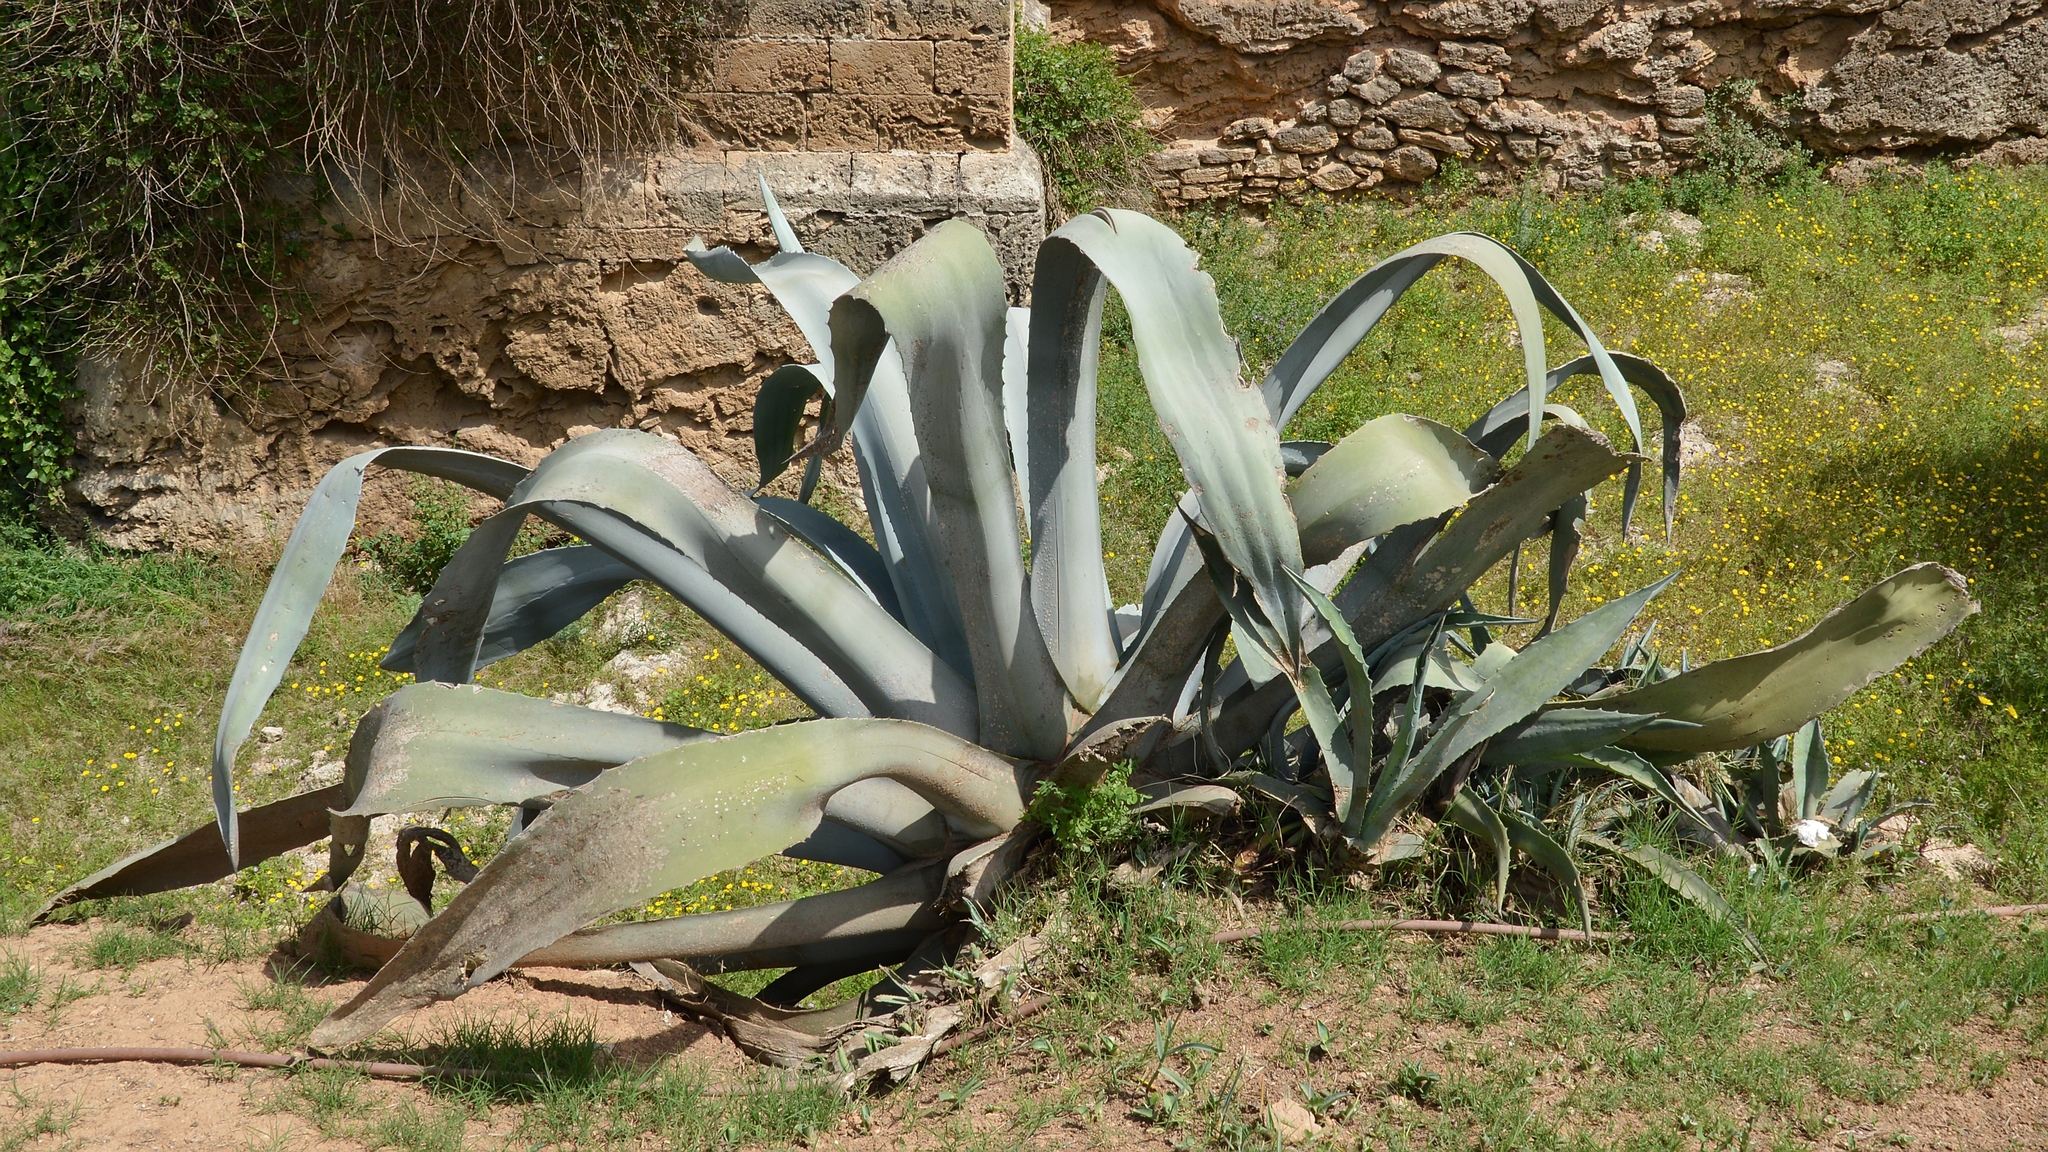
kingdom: Plantae
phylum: Tracheophyta
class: Liliopsida
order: Asparagales
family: Asparagaceae
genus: Agave
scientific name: Agave americana
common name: Centuryplant
